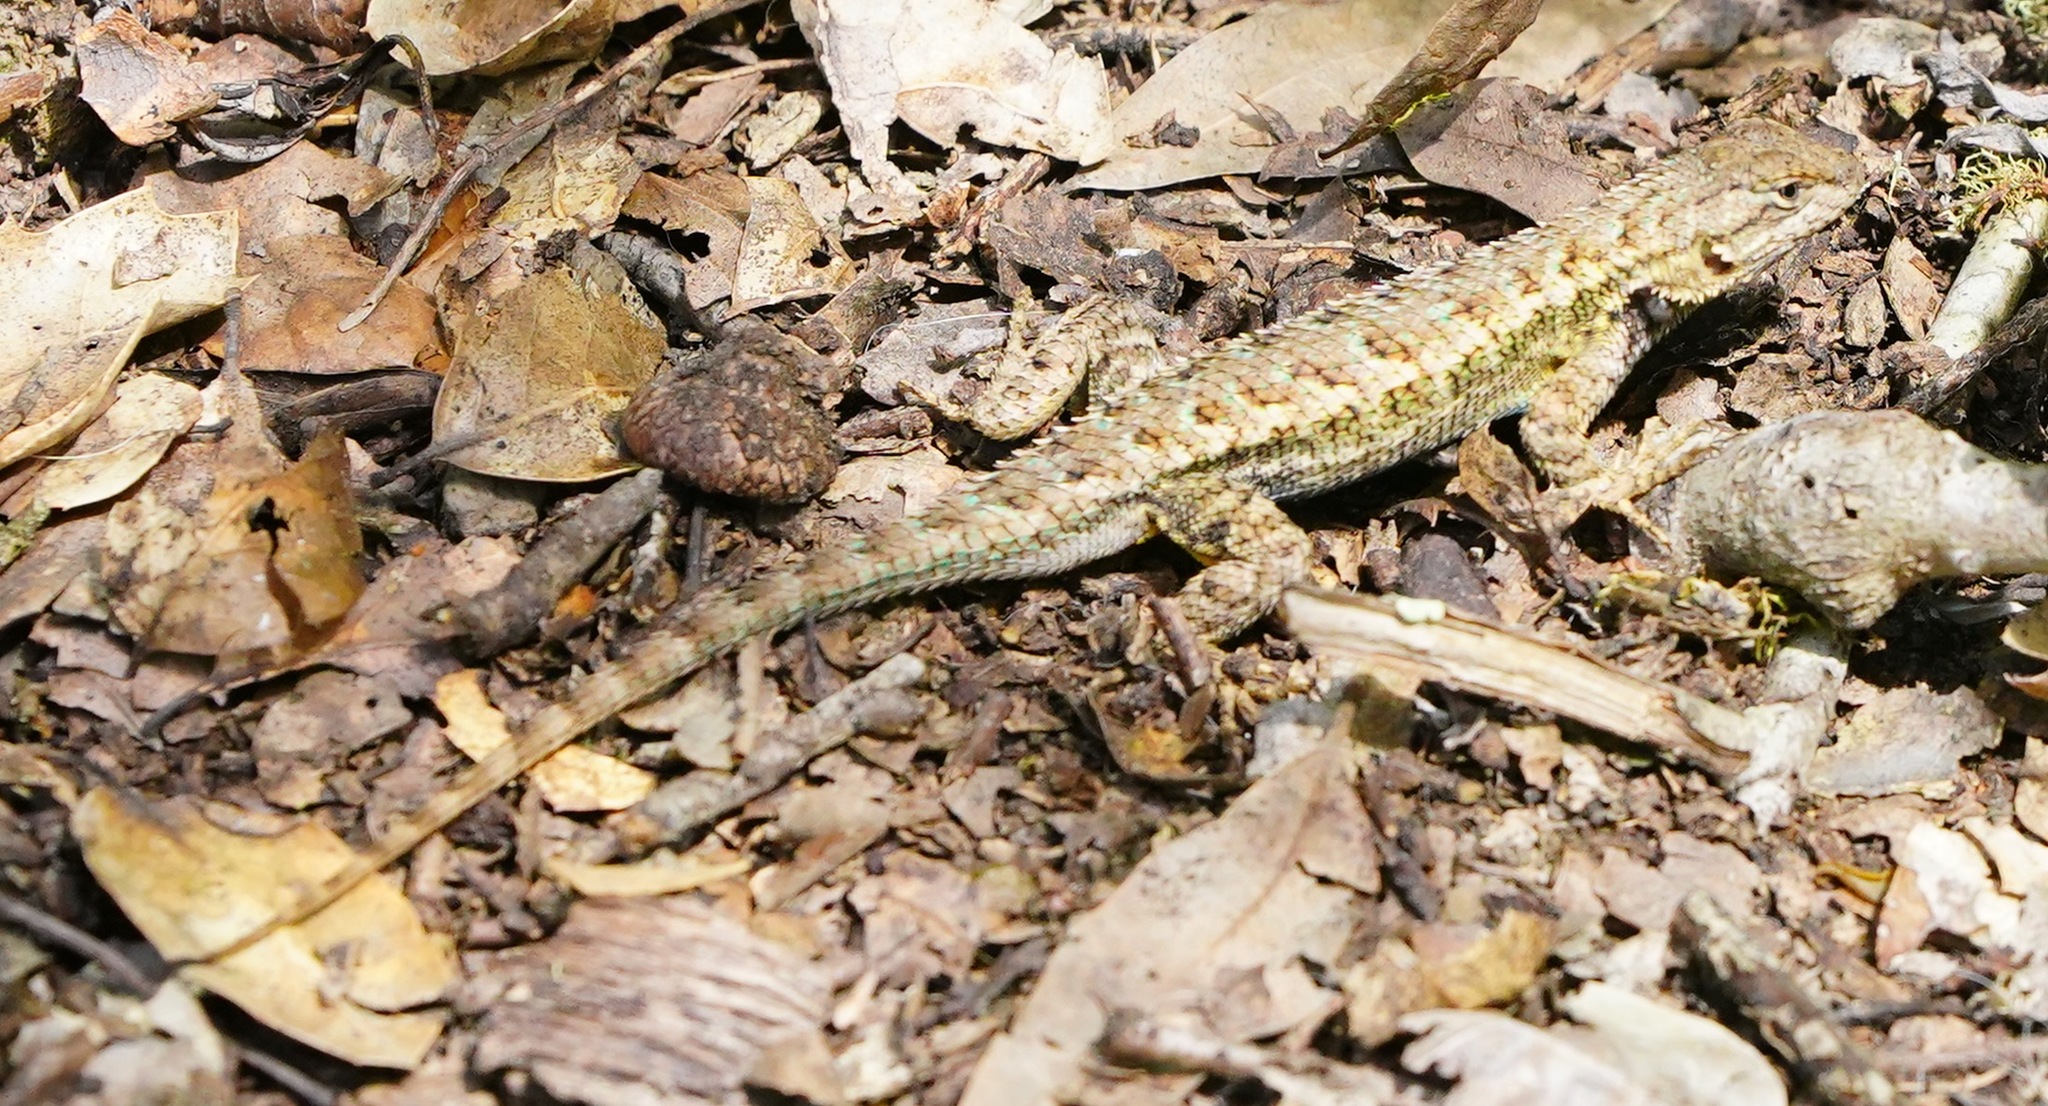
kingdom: Animalia
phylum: Chordata
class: Squamata
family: Phrynosomatidae
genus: Sceloporus
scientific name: Sceloporus occidentalis
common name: Western fence lizard
